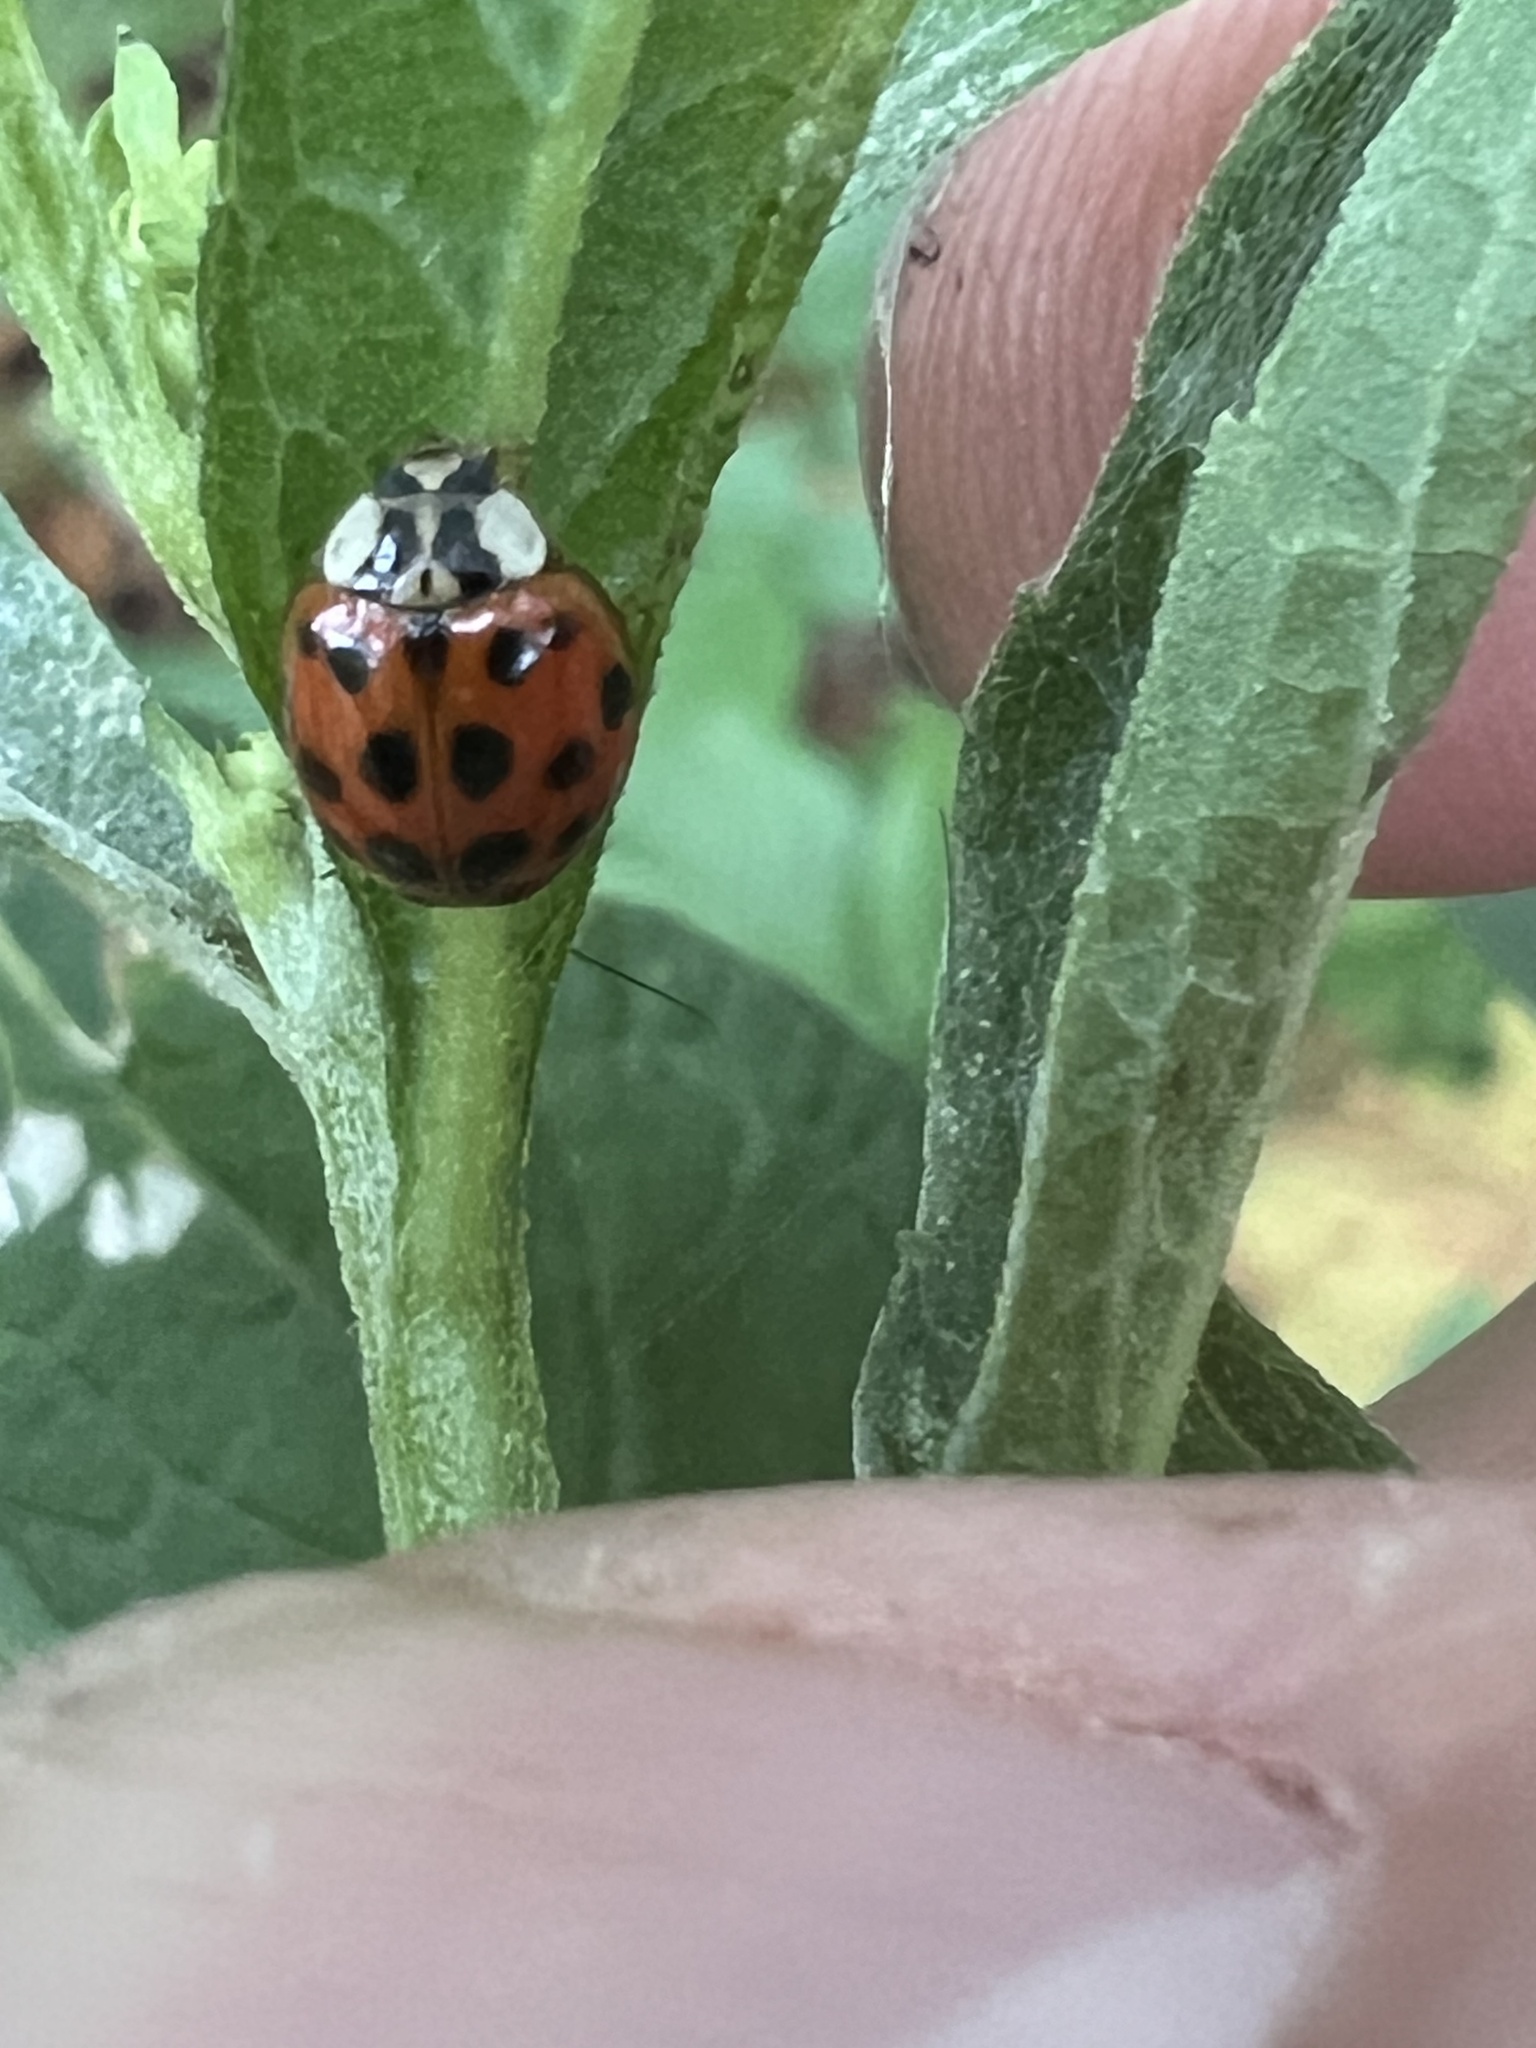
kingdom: Animalia
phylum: Arthropoda
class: Insecta
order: Coleoptera
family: Coccinellidae
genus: Harmonia
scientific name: Harmonia axyridis
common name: Harlequin ladybird
